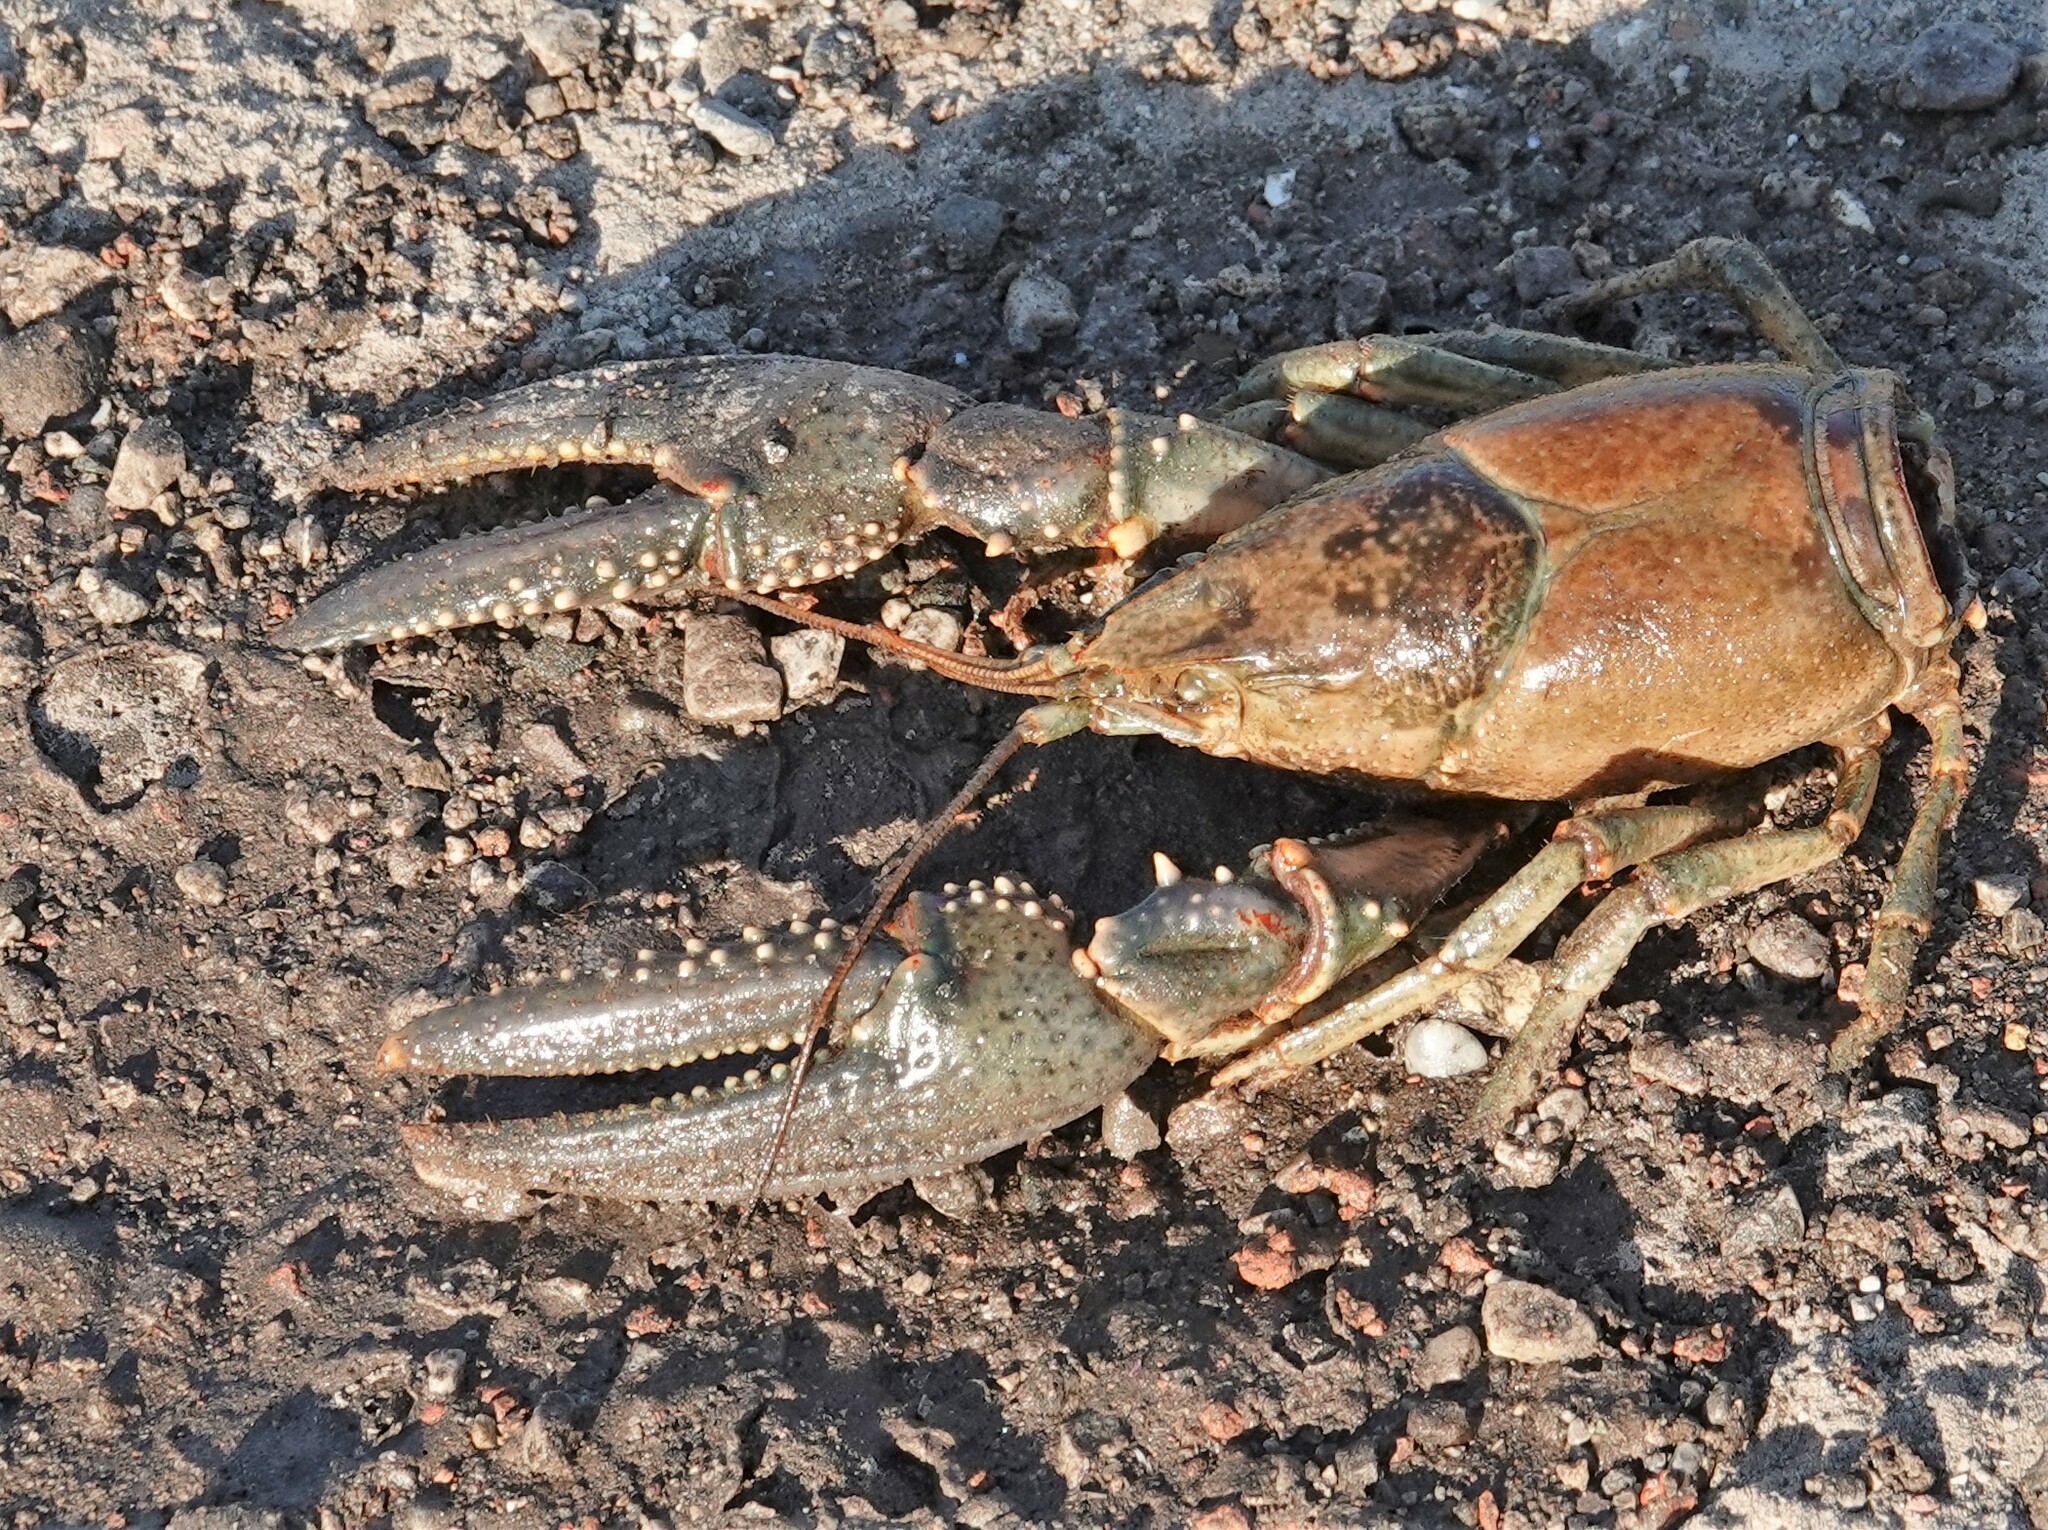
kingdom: Animalia
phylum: Arthropoda
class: Malacostraca
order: Decapoda
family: Cambaridae
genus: Faxonius
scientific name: Faxonius virilis
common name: Virile crayfish
